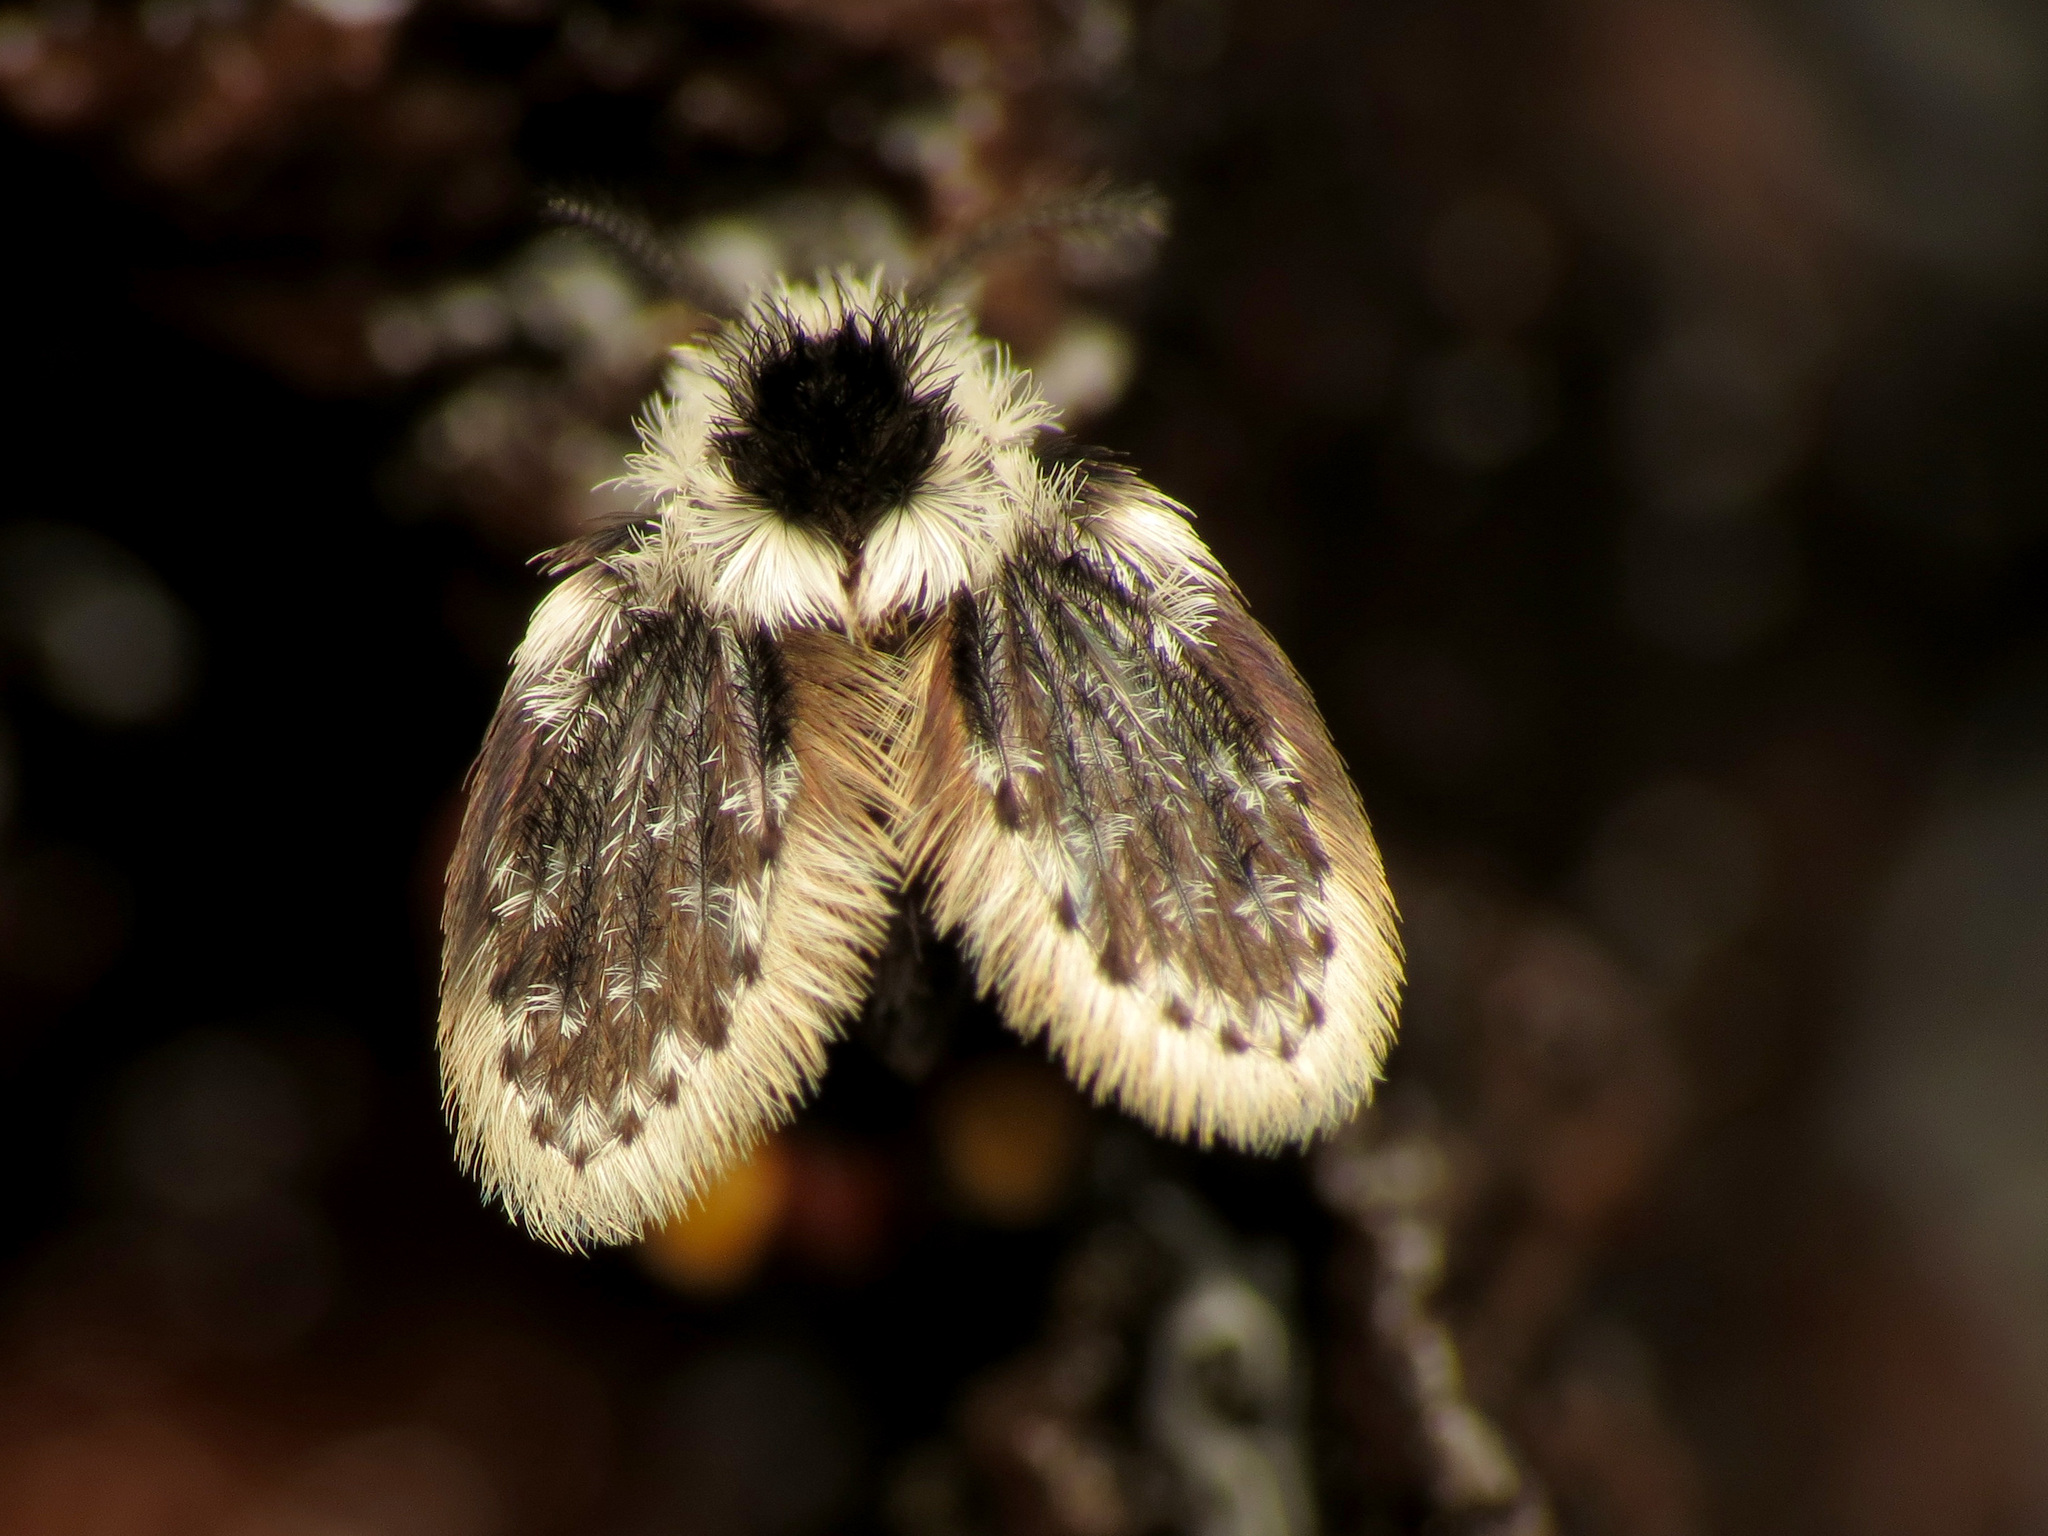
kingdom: Animalia
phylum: Arthropoda
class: Insecta
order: Diptera
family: Psychodidae
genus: Lepiseodina
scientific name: Lepiseodina
